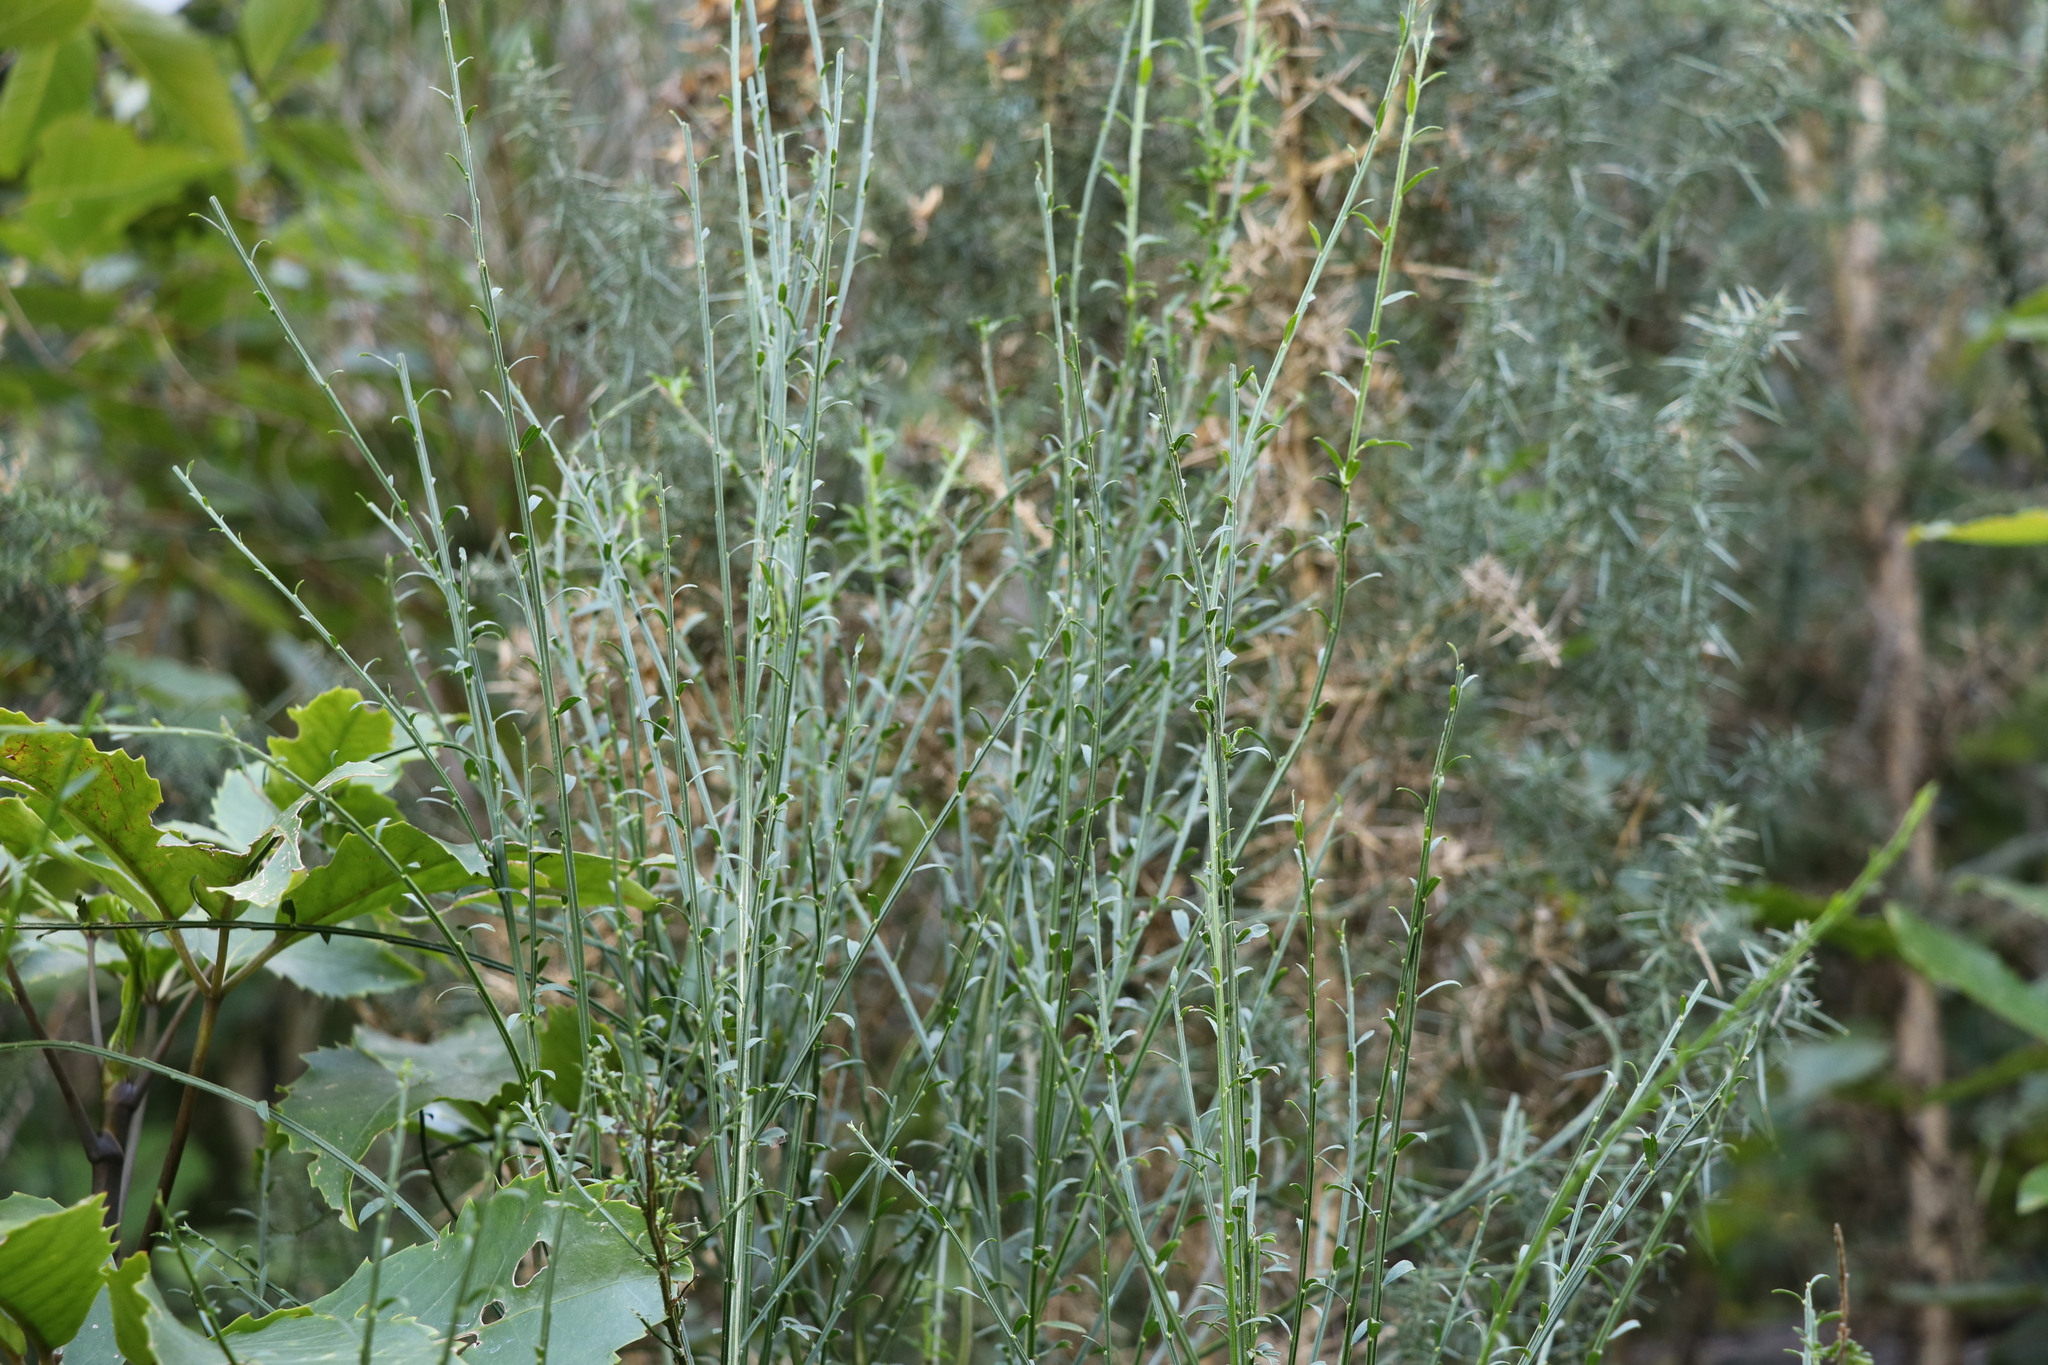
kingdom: Plantae
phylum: Tracheophyta
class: Magnoliopsida
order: Fabales
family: Fabaceae
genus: Cytisus
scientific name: Cytisus scoparius
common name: Scotch broom
